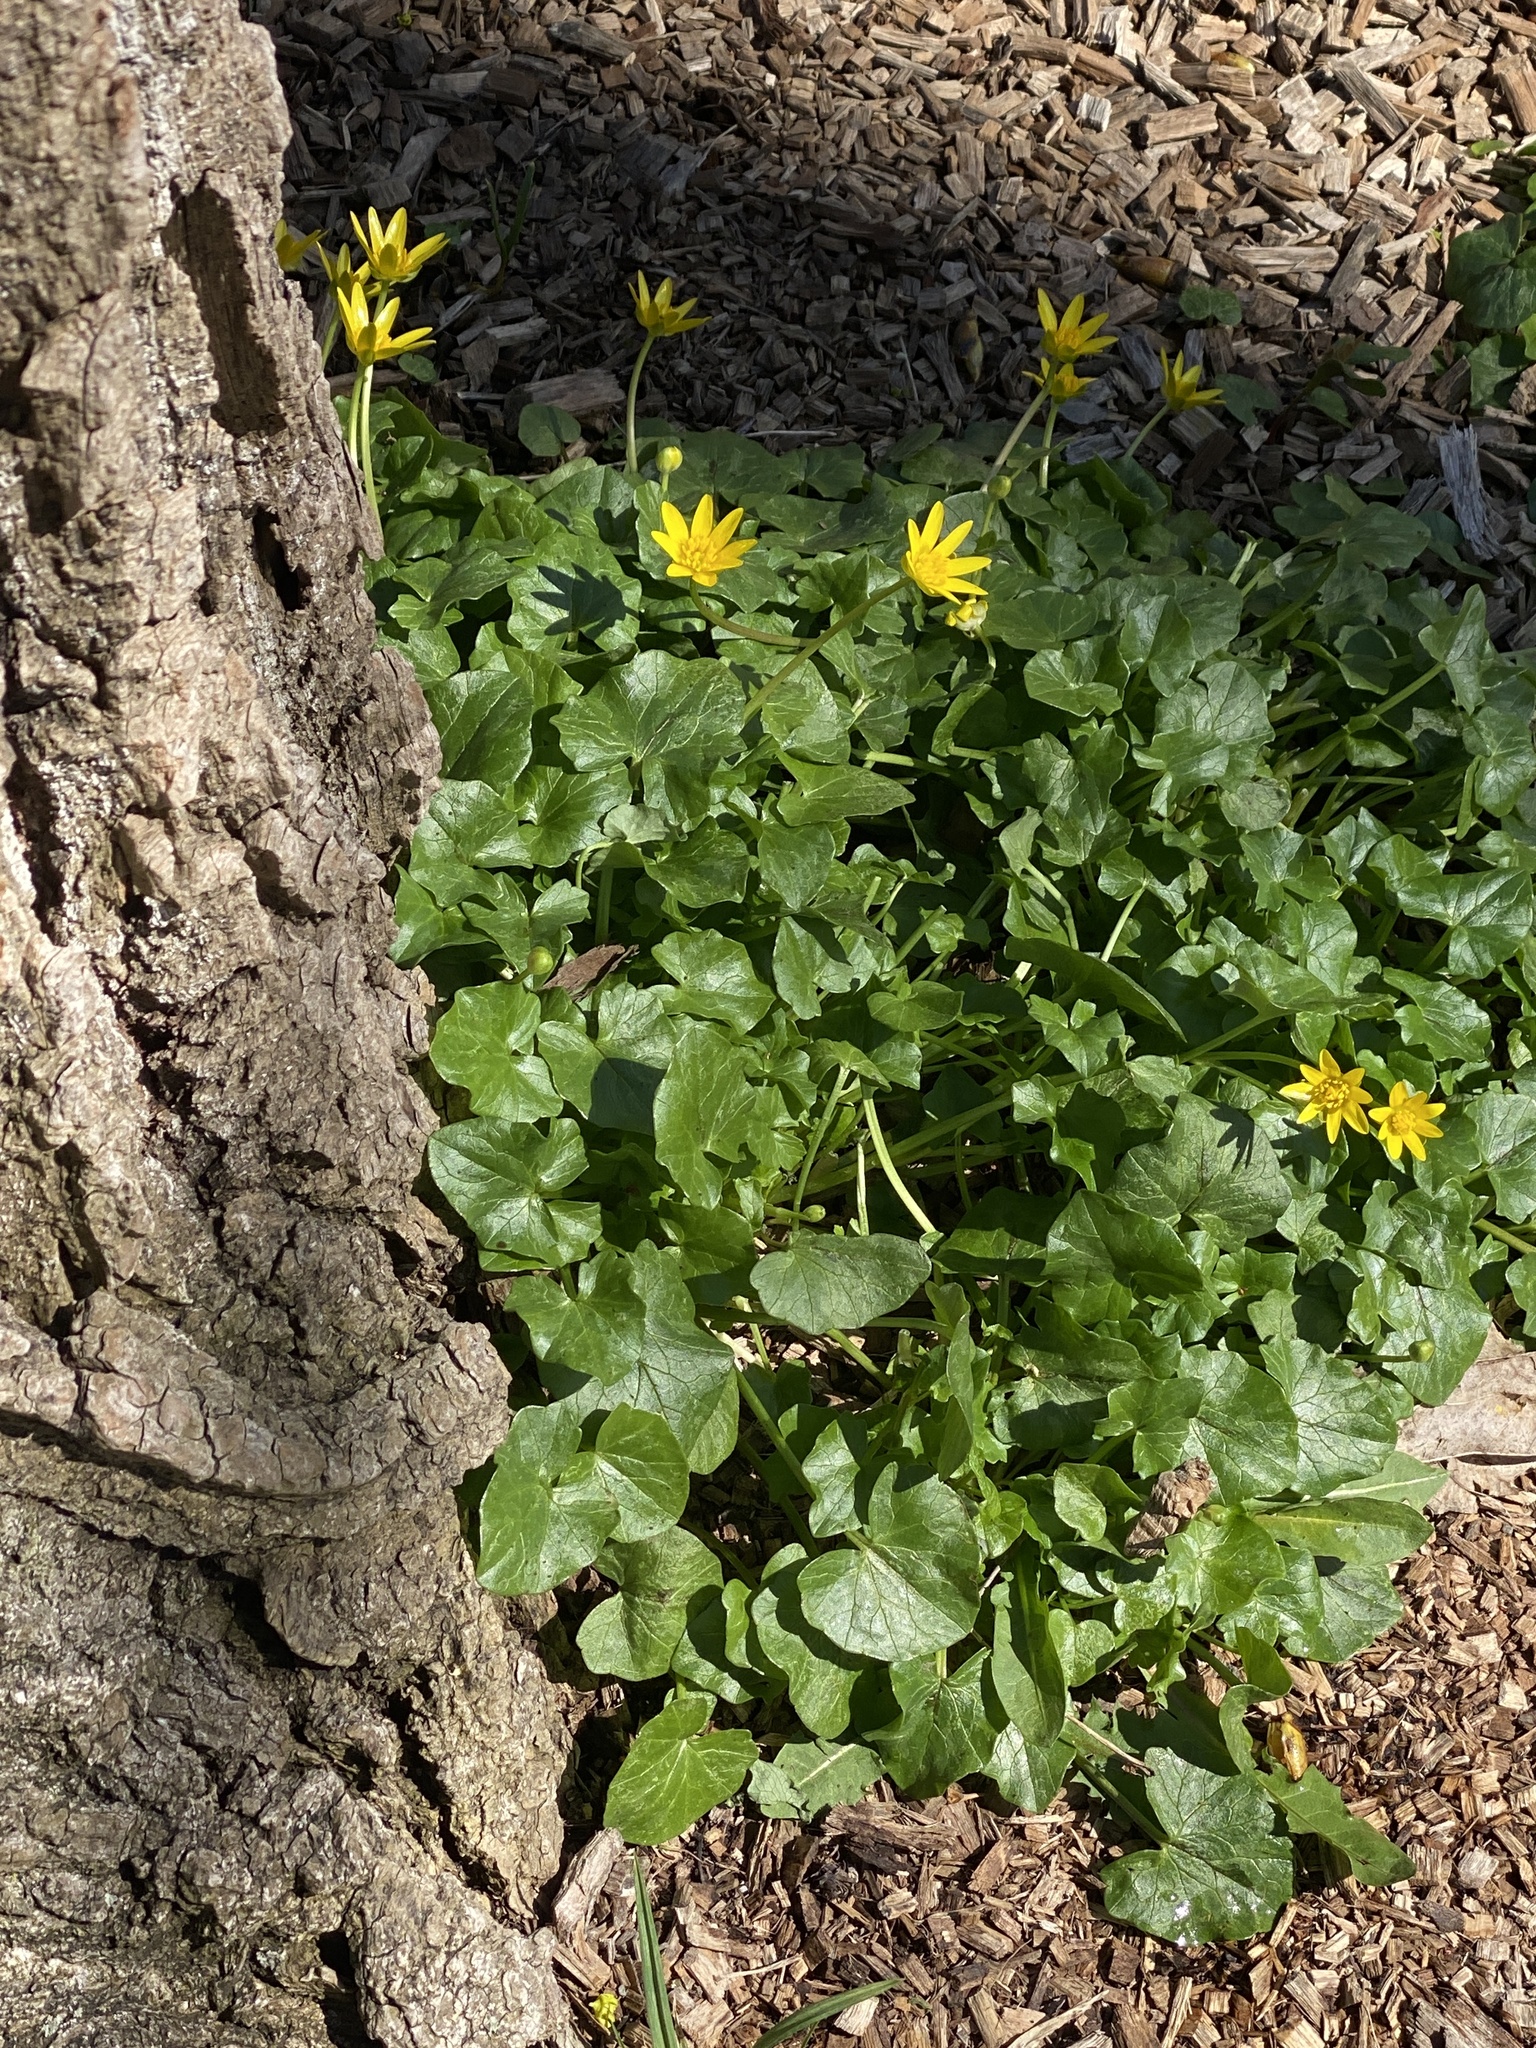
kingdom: Plantae
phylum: Tracheophyta
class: Magnoliopsida
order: Ranunculales
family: Ranunculaceae
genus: Ficaria
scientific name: Ficaria verna
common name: Lesser celandine
